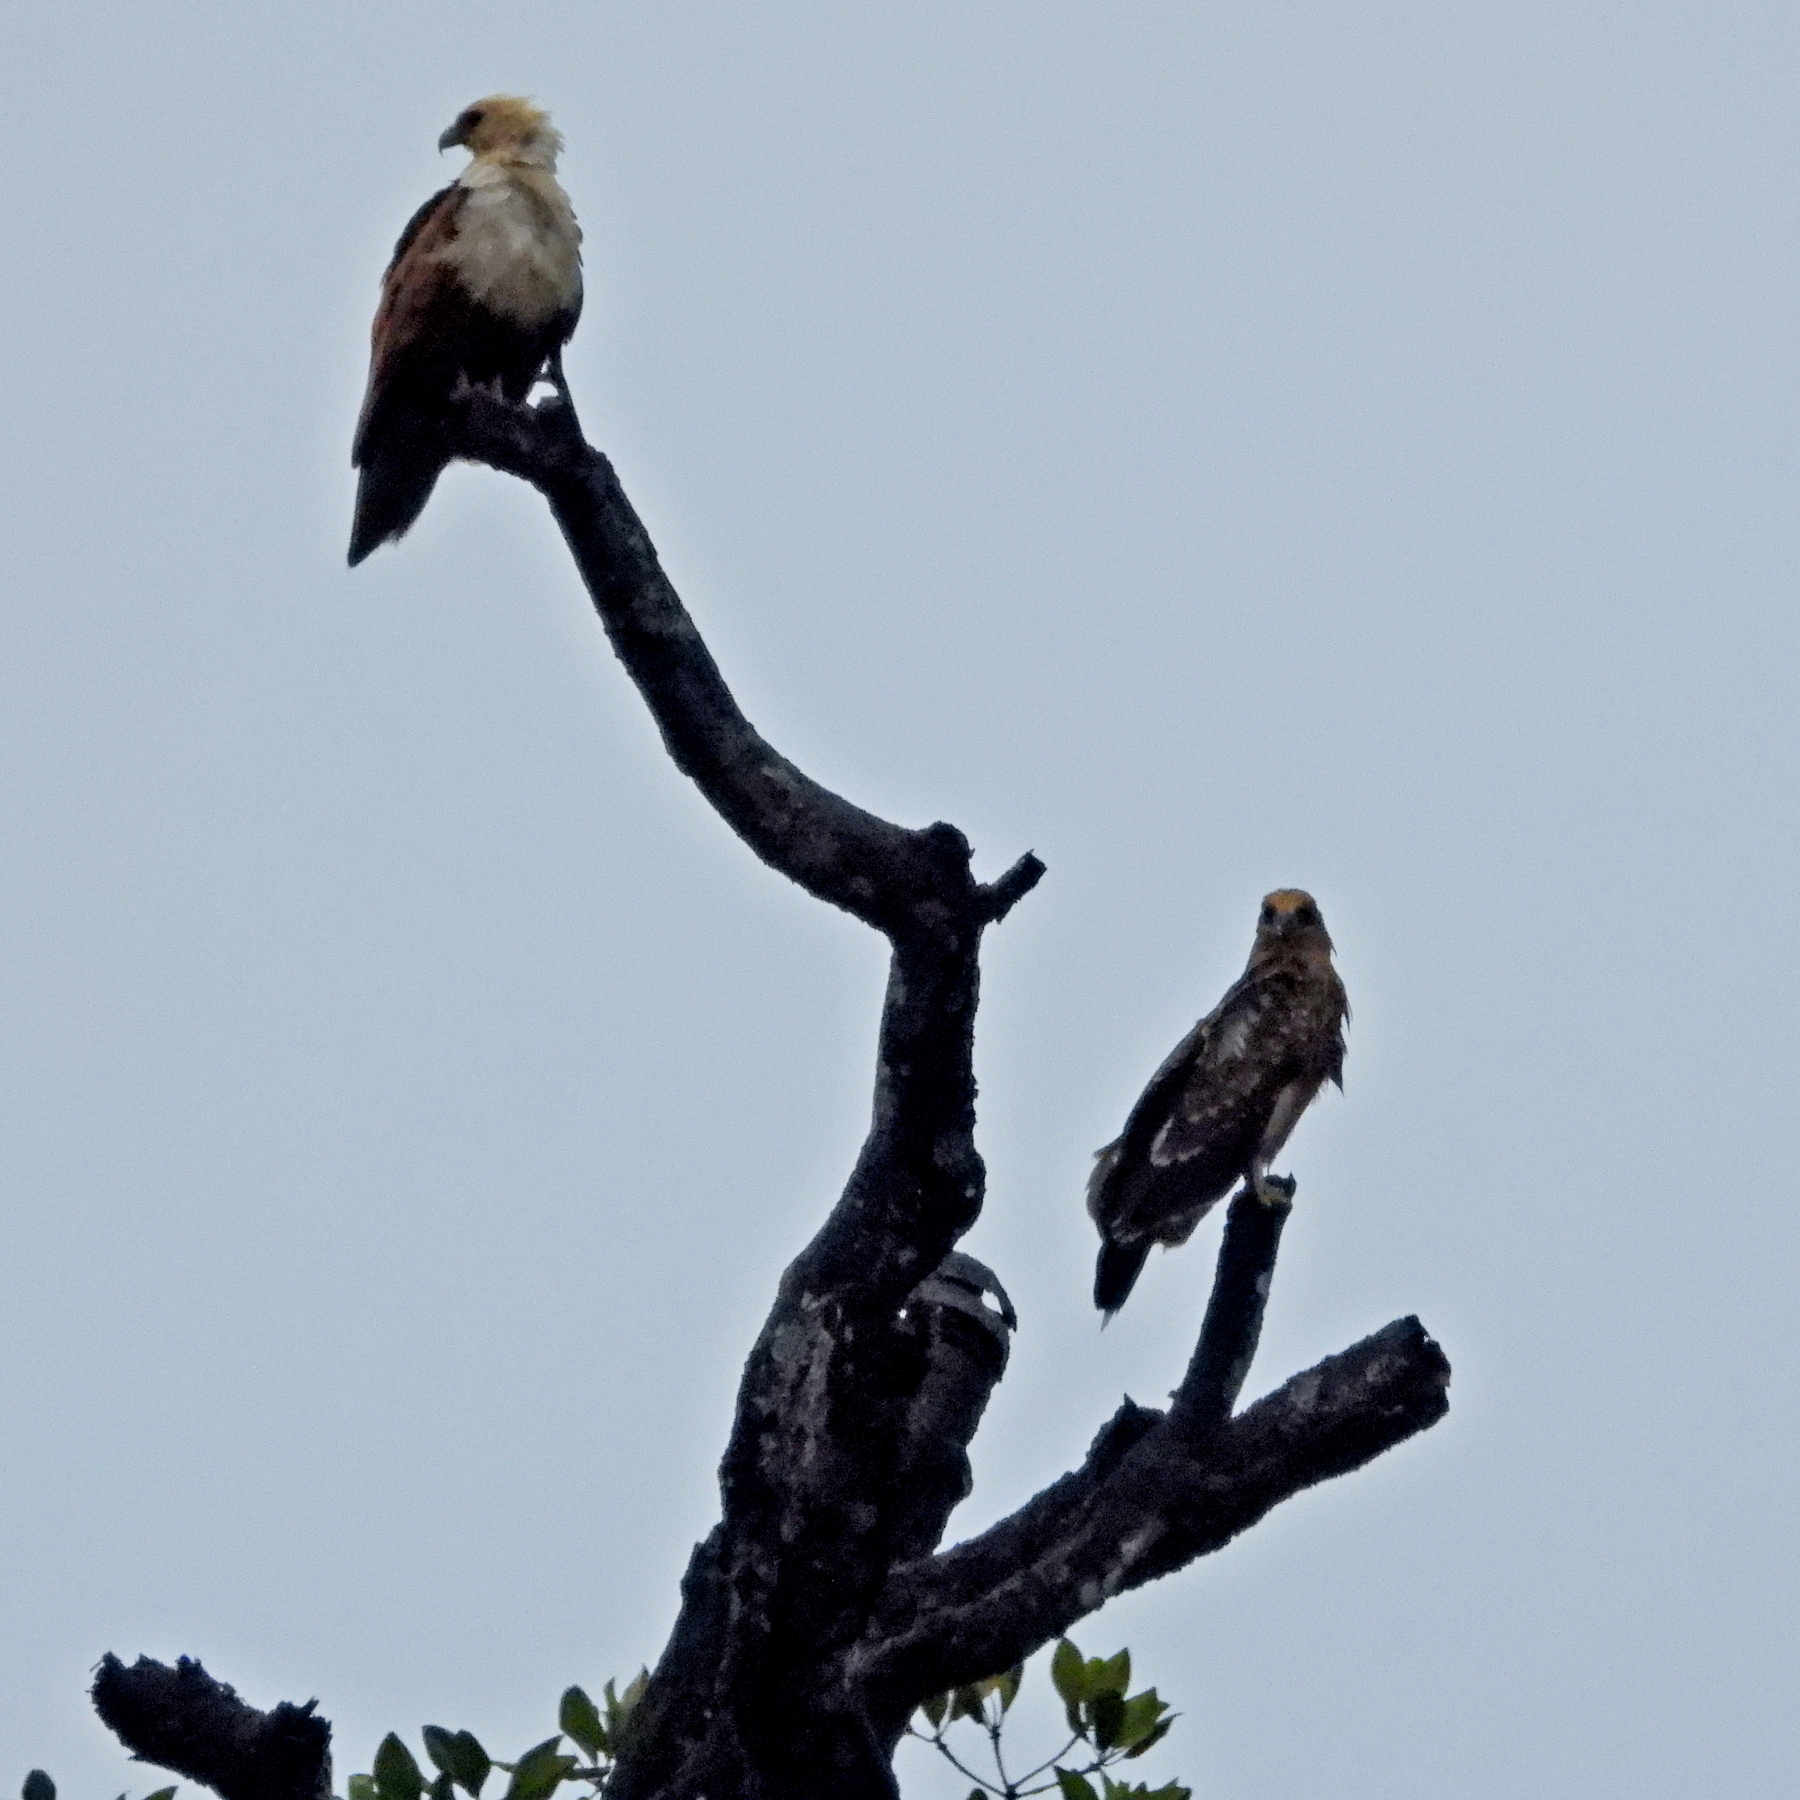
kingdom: Animalia
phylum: Chordata
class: Aves
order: Accipitriformes
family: Accipitridae
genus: Haliastur
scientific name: Haliastur indus
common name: Brahminy kite
